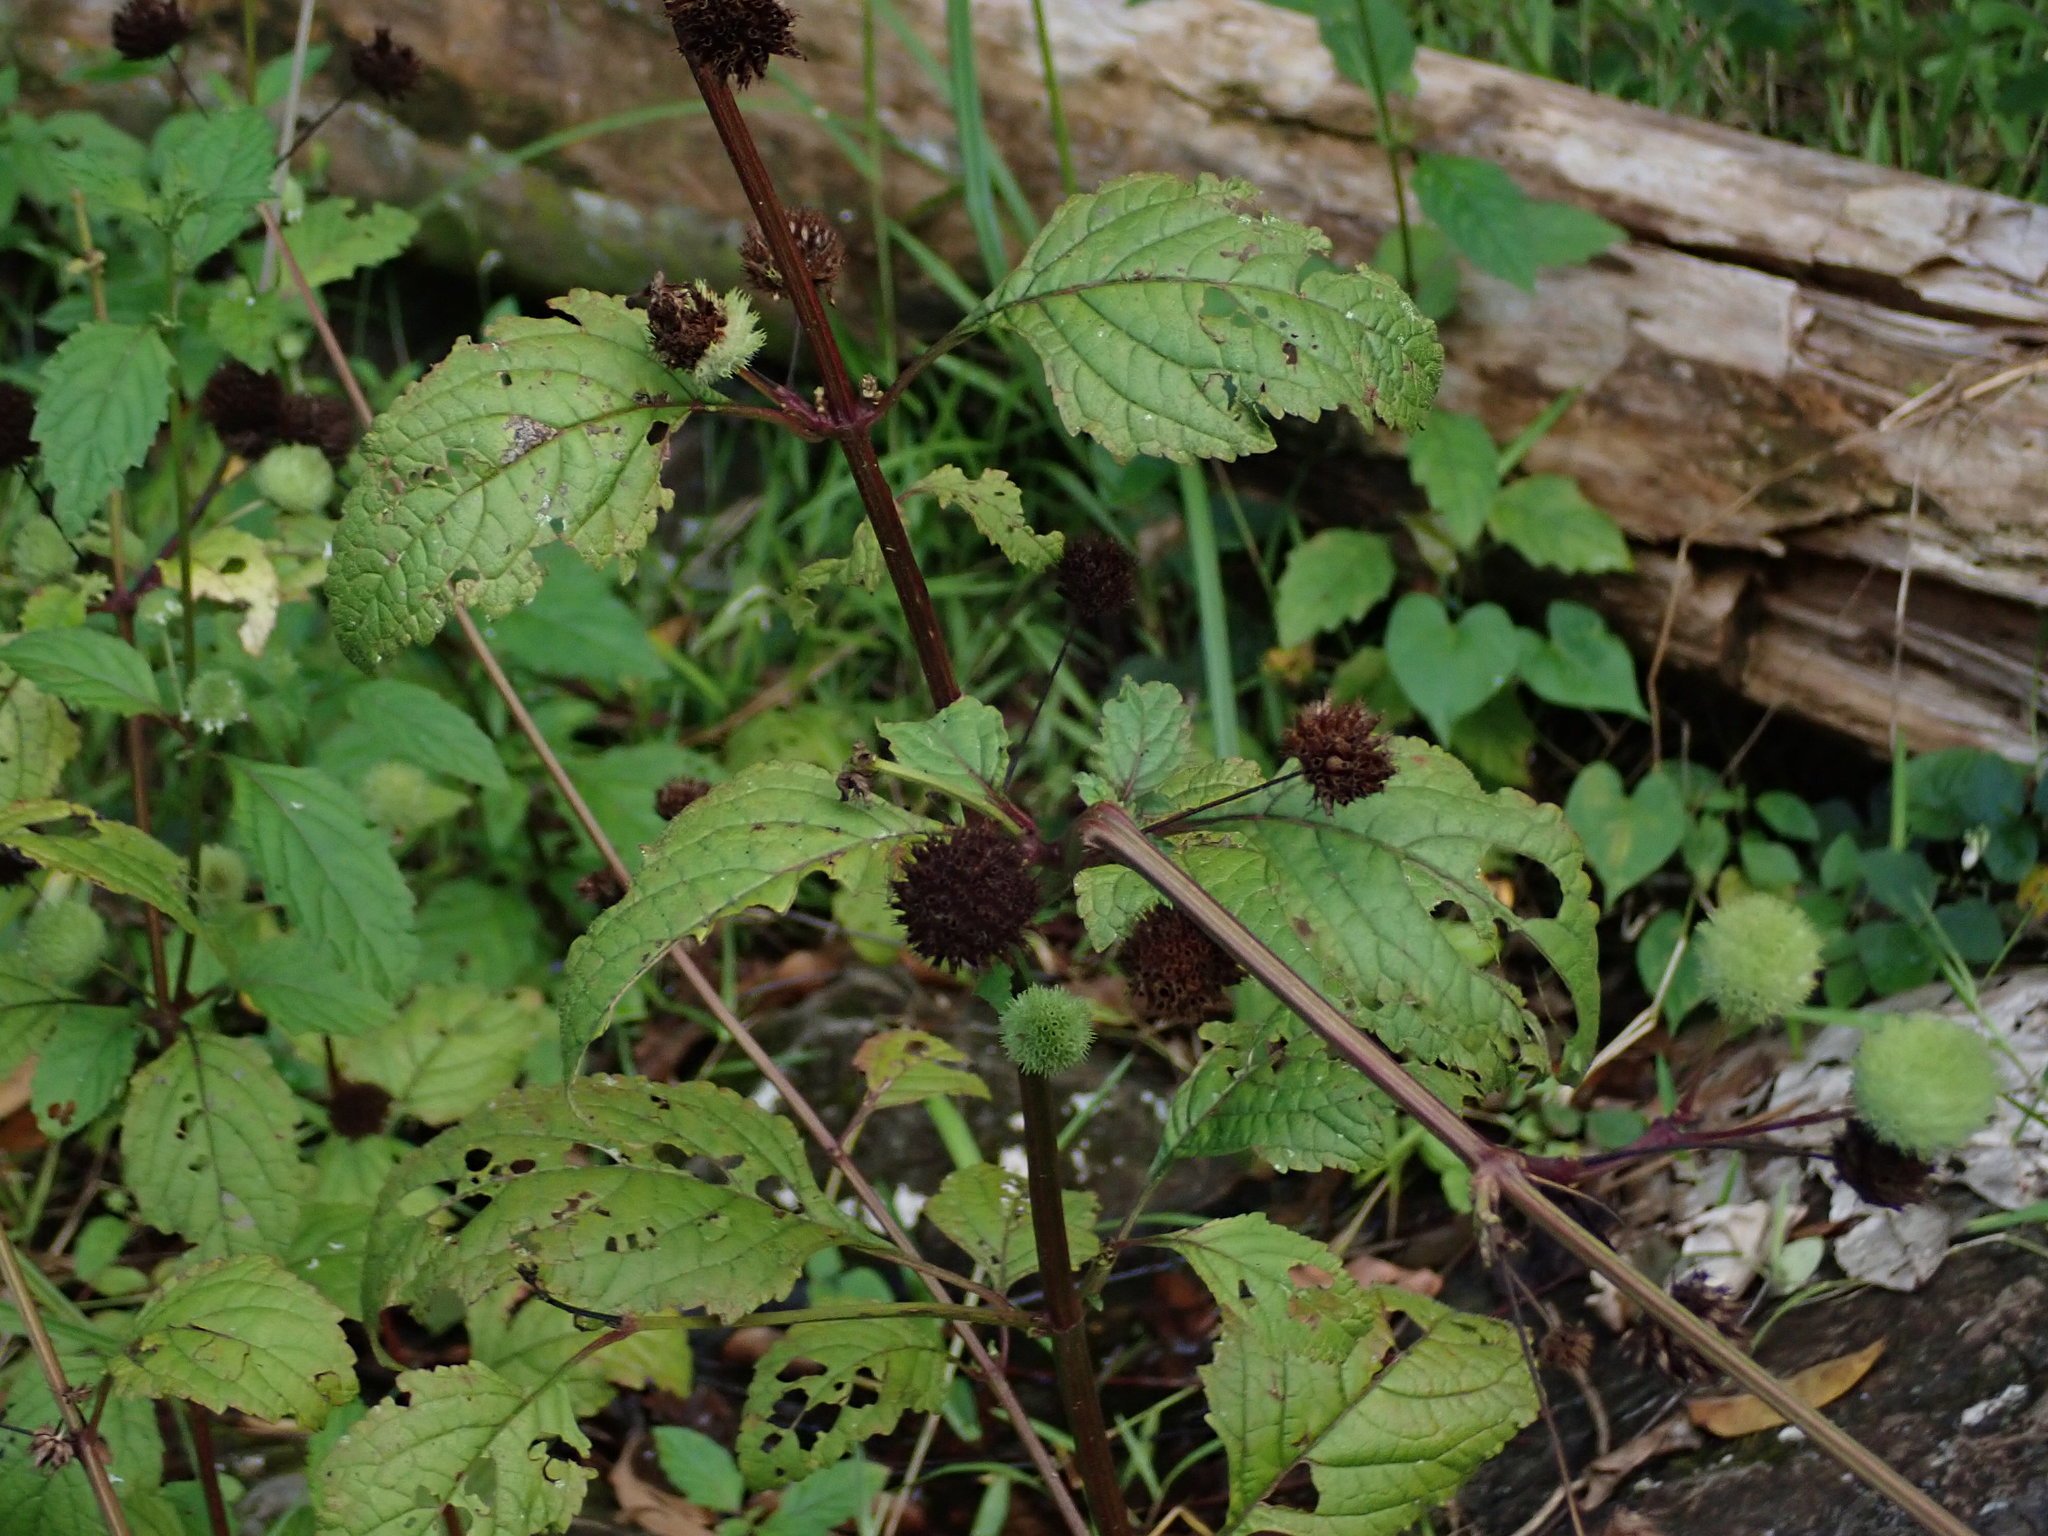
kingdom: Plantae
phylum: Tracheophyta
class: Magnoliopsida
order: Lamiales
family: Lamiaceae
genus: Hyptis
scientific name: Hyptis capitata
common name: False ironwort
